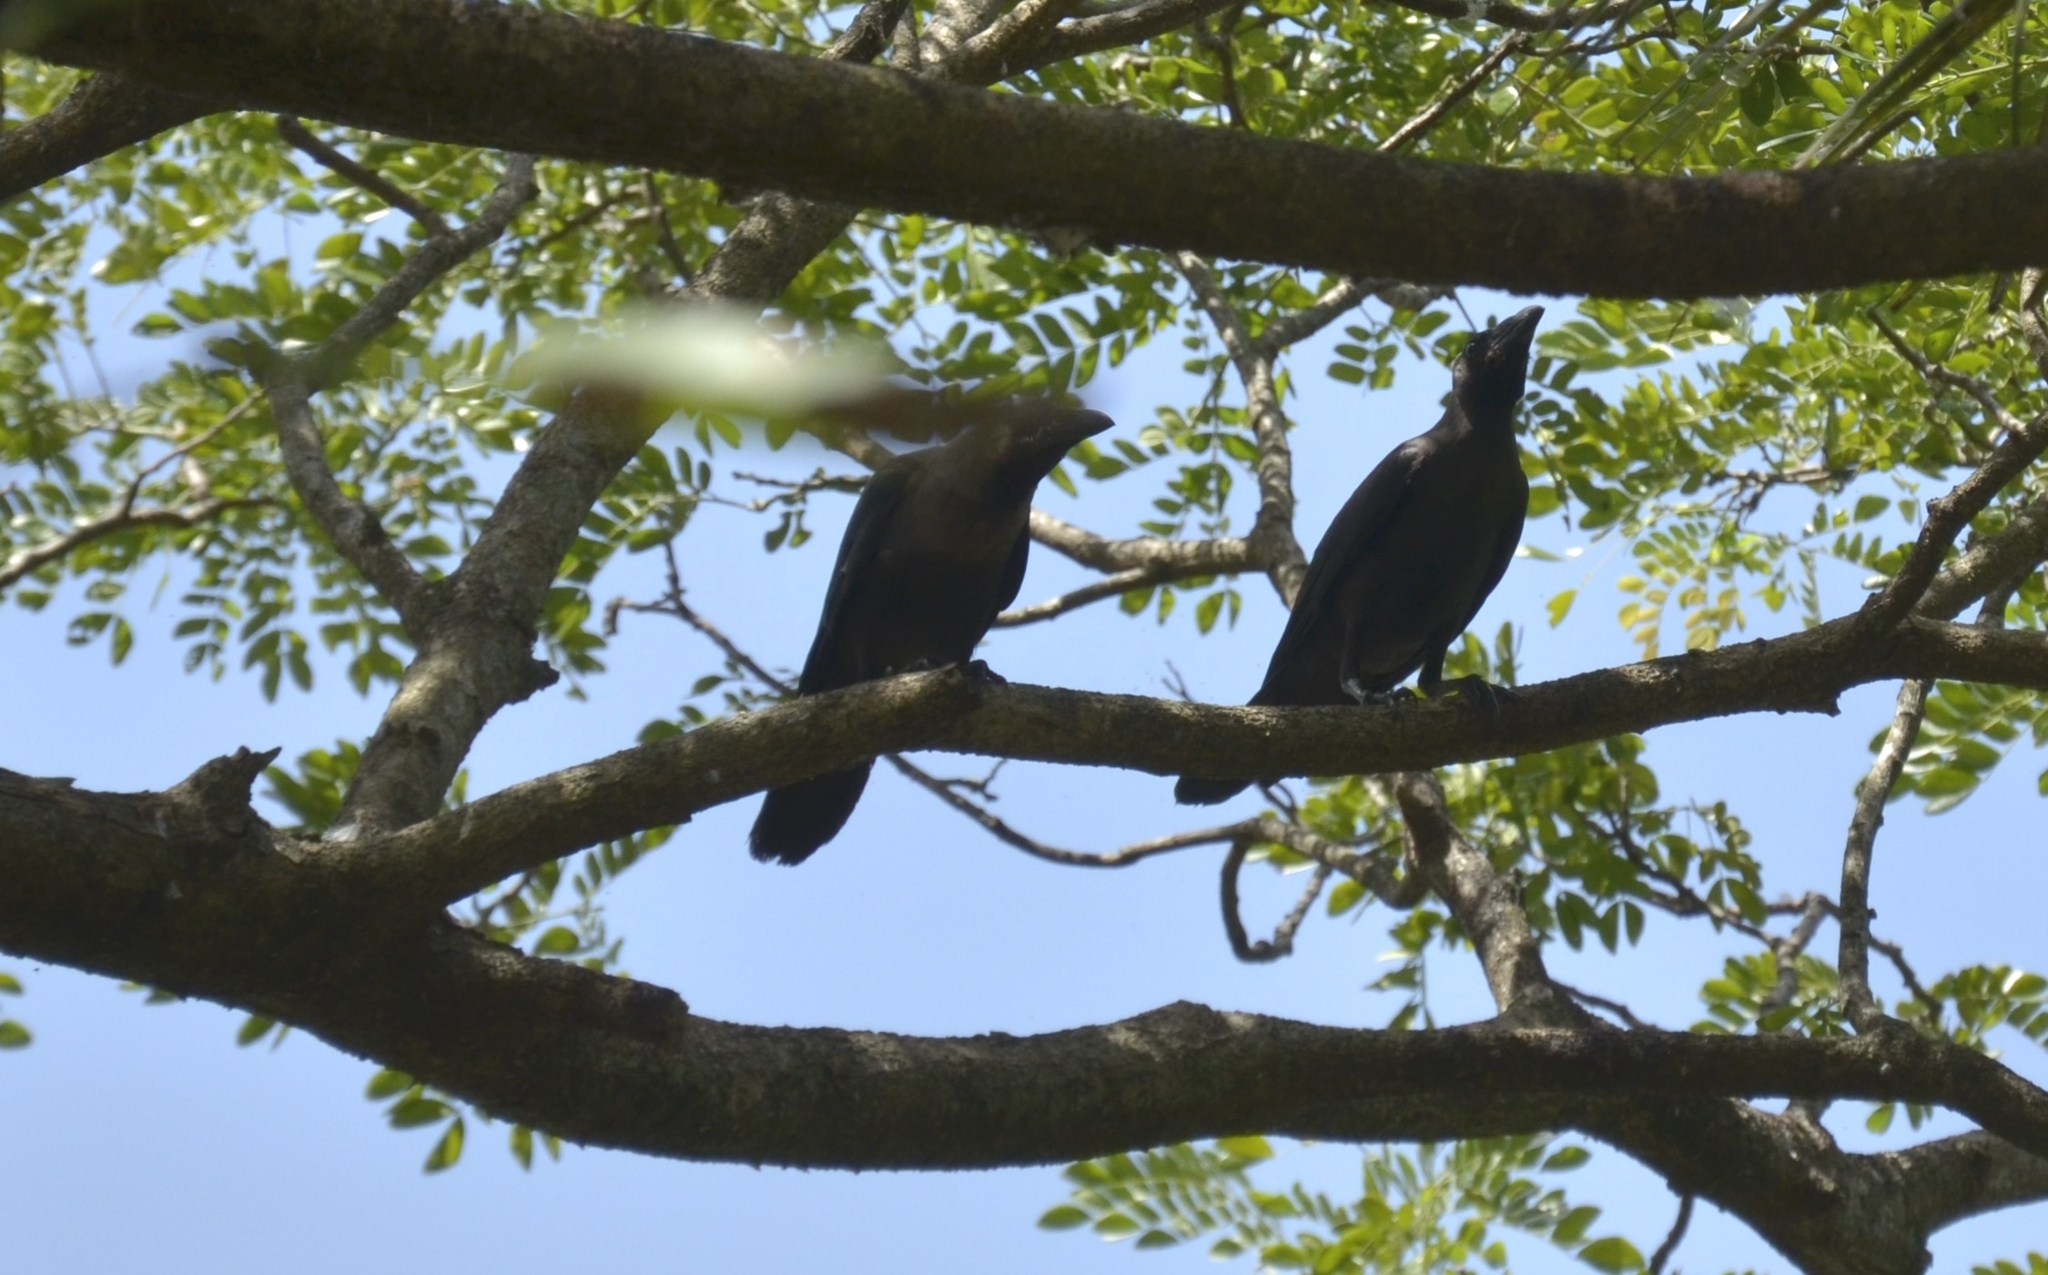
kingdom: Animalia
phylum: Chordata
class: Aves
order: Passeriformes
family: Corvidae
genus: Corvus
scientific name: Corvus splendens
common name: House crow
